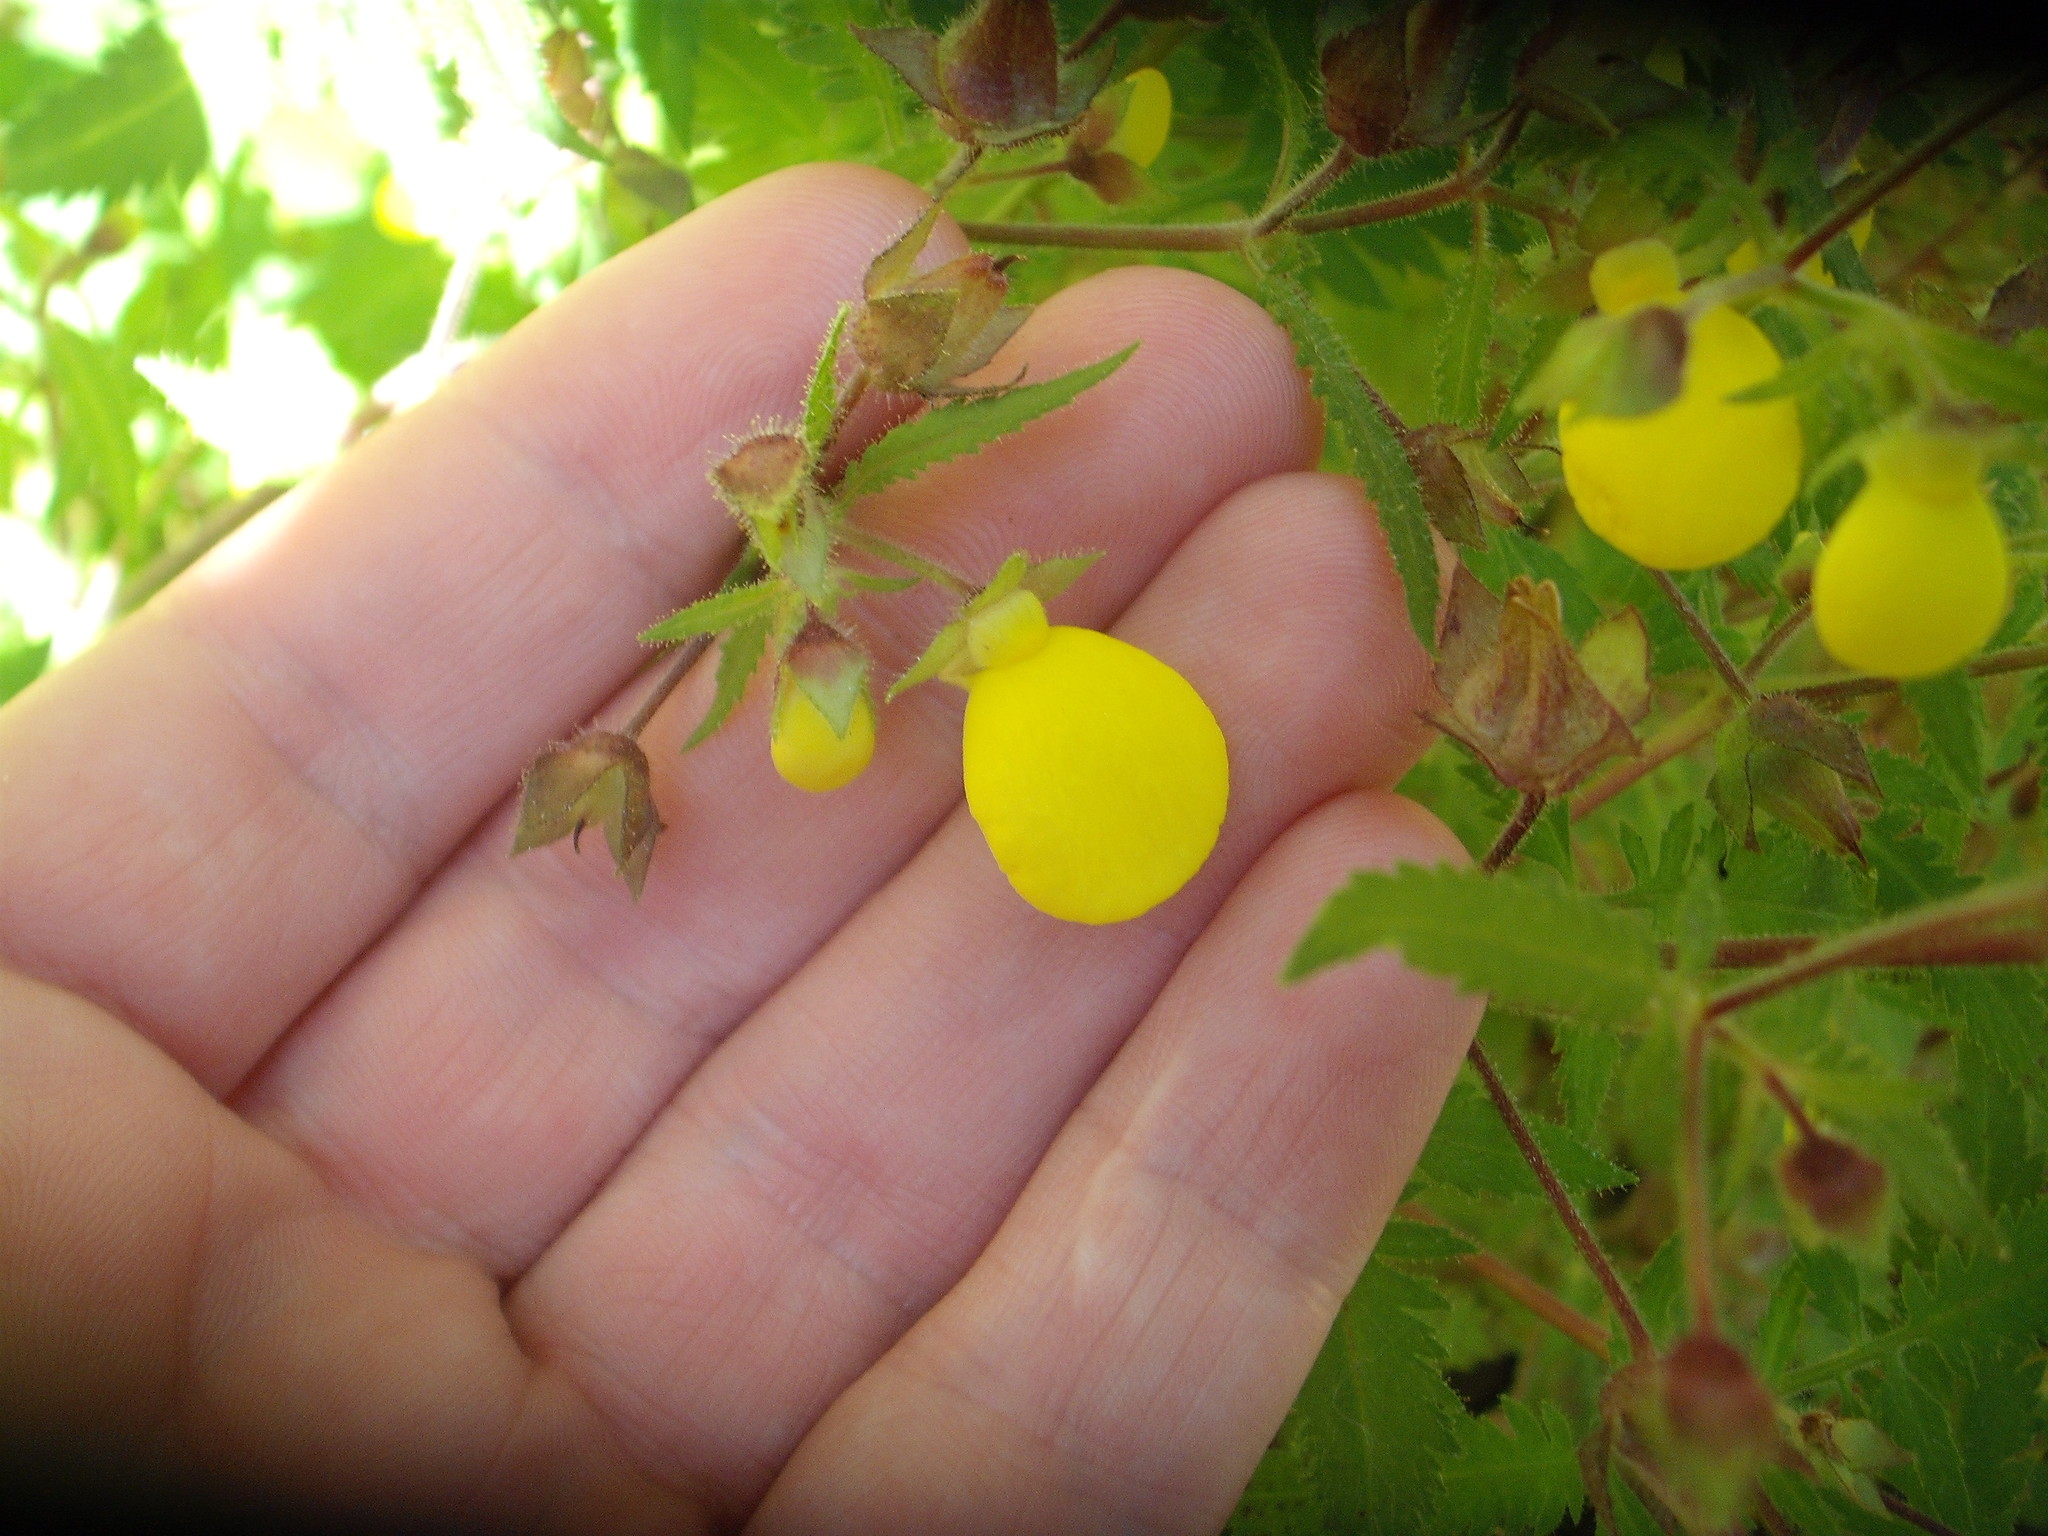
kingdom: Plantae
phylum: Tracheophyta
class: Magnoliopsida
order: Lamiales
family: Calceolariaceae
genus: Calceolaria
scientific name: Calceolaria tripartita
